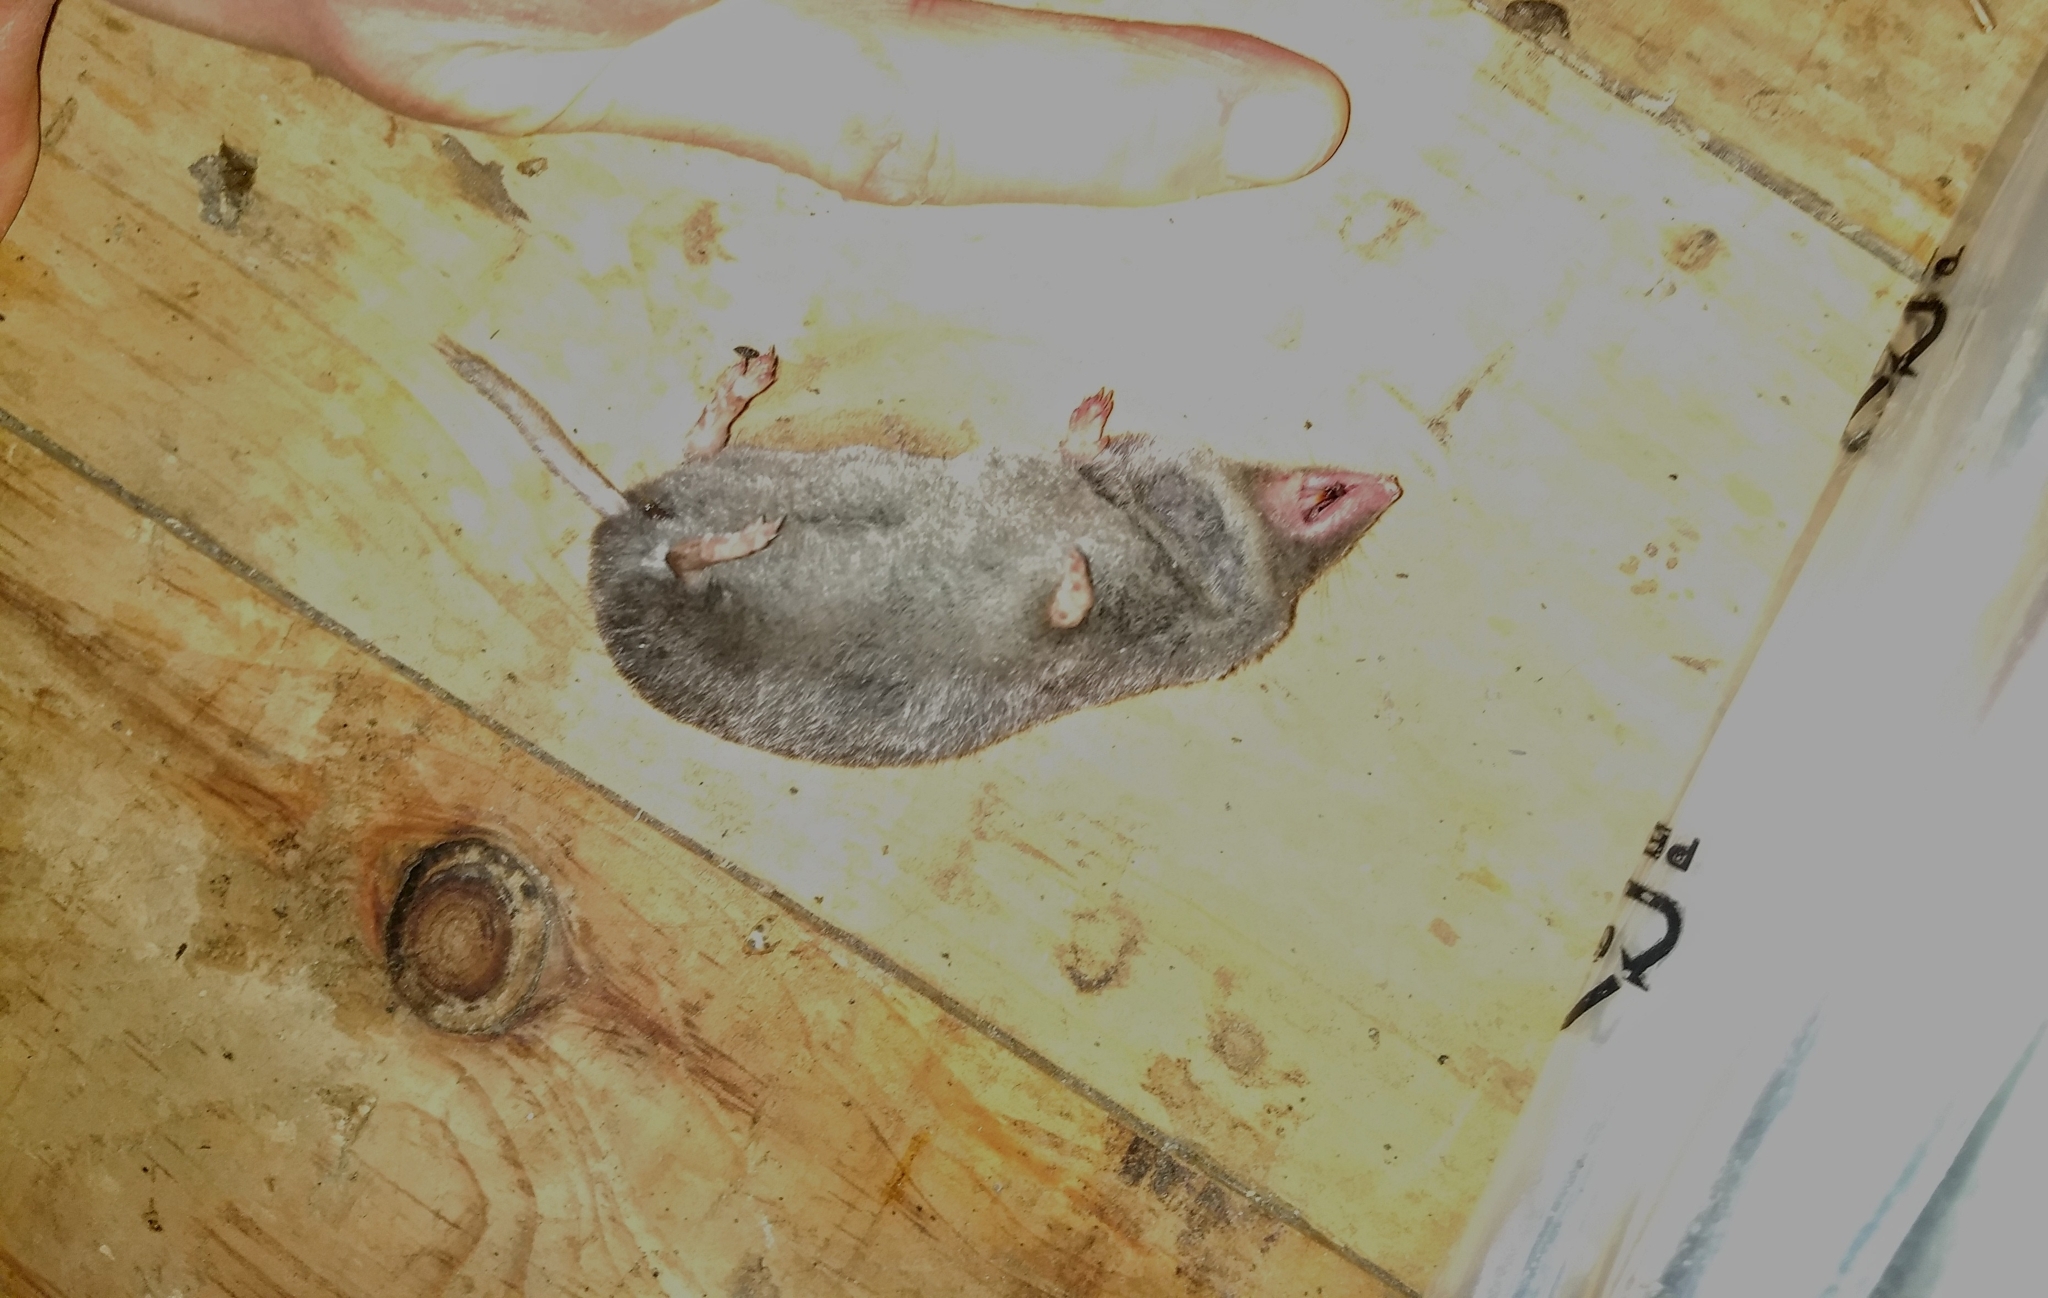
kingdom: Animalia
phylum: Chordata
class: Mammalia
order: Soricomorpha
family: Soricidae
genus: Blarina
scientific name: Blarina brevicauda
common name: Northern short-tailed shrew
